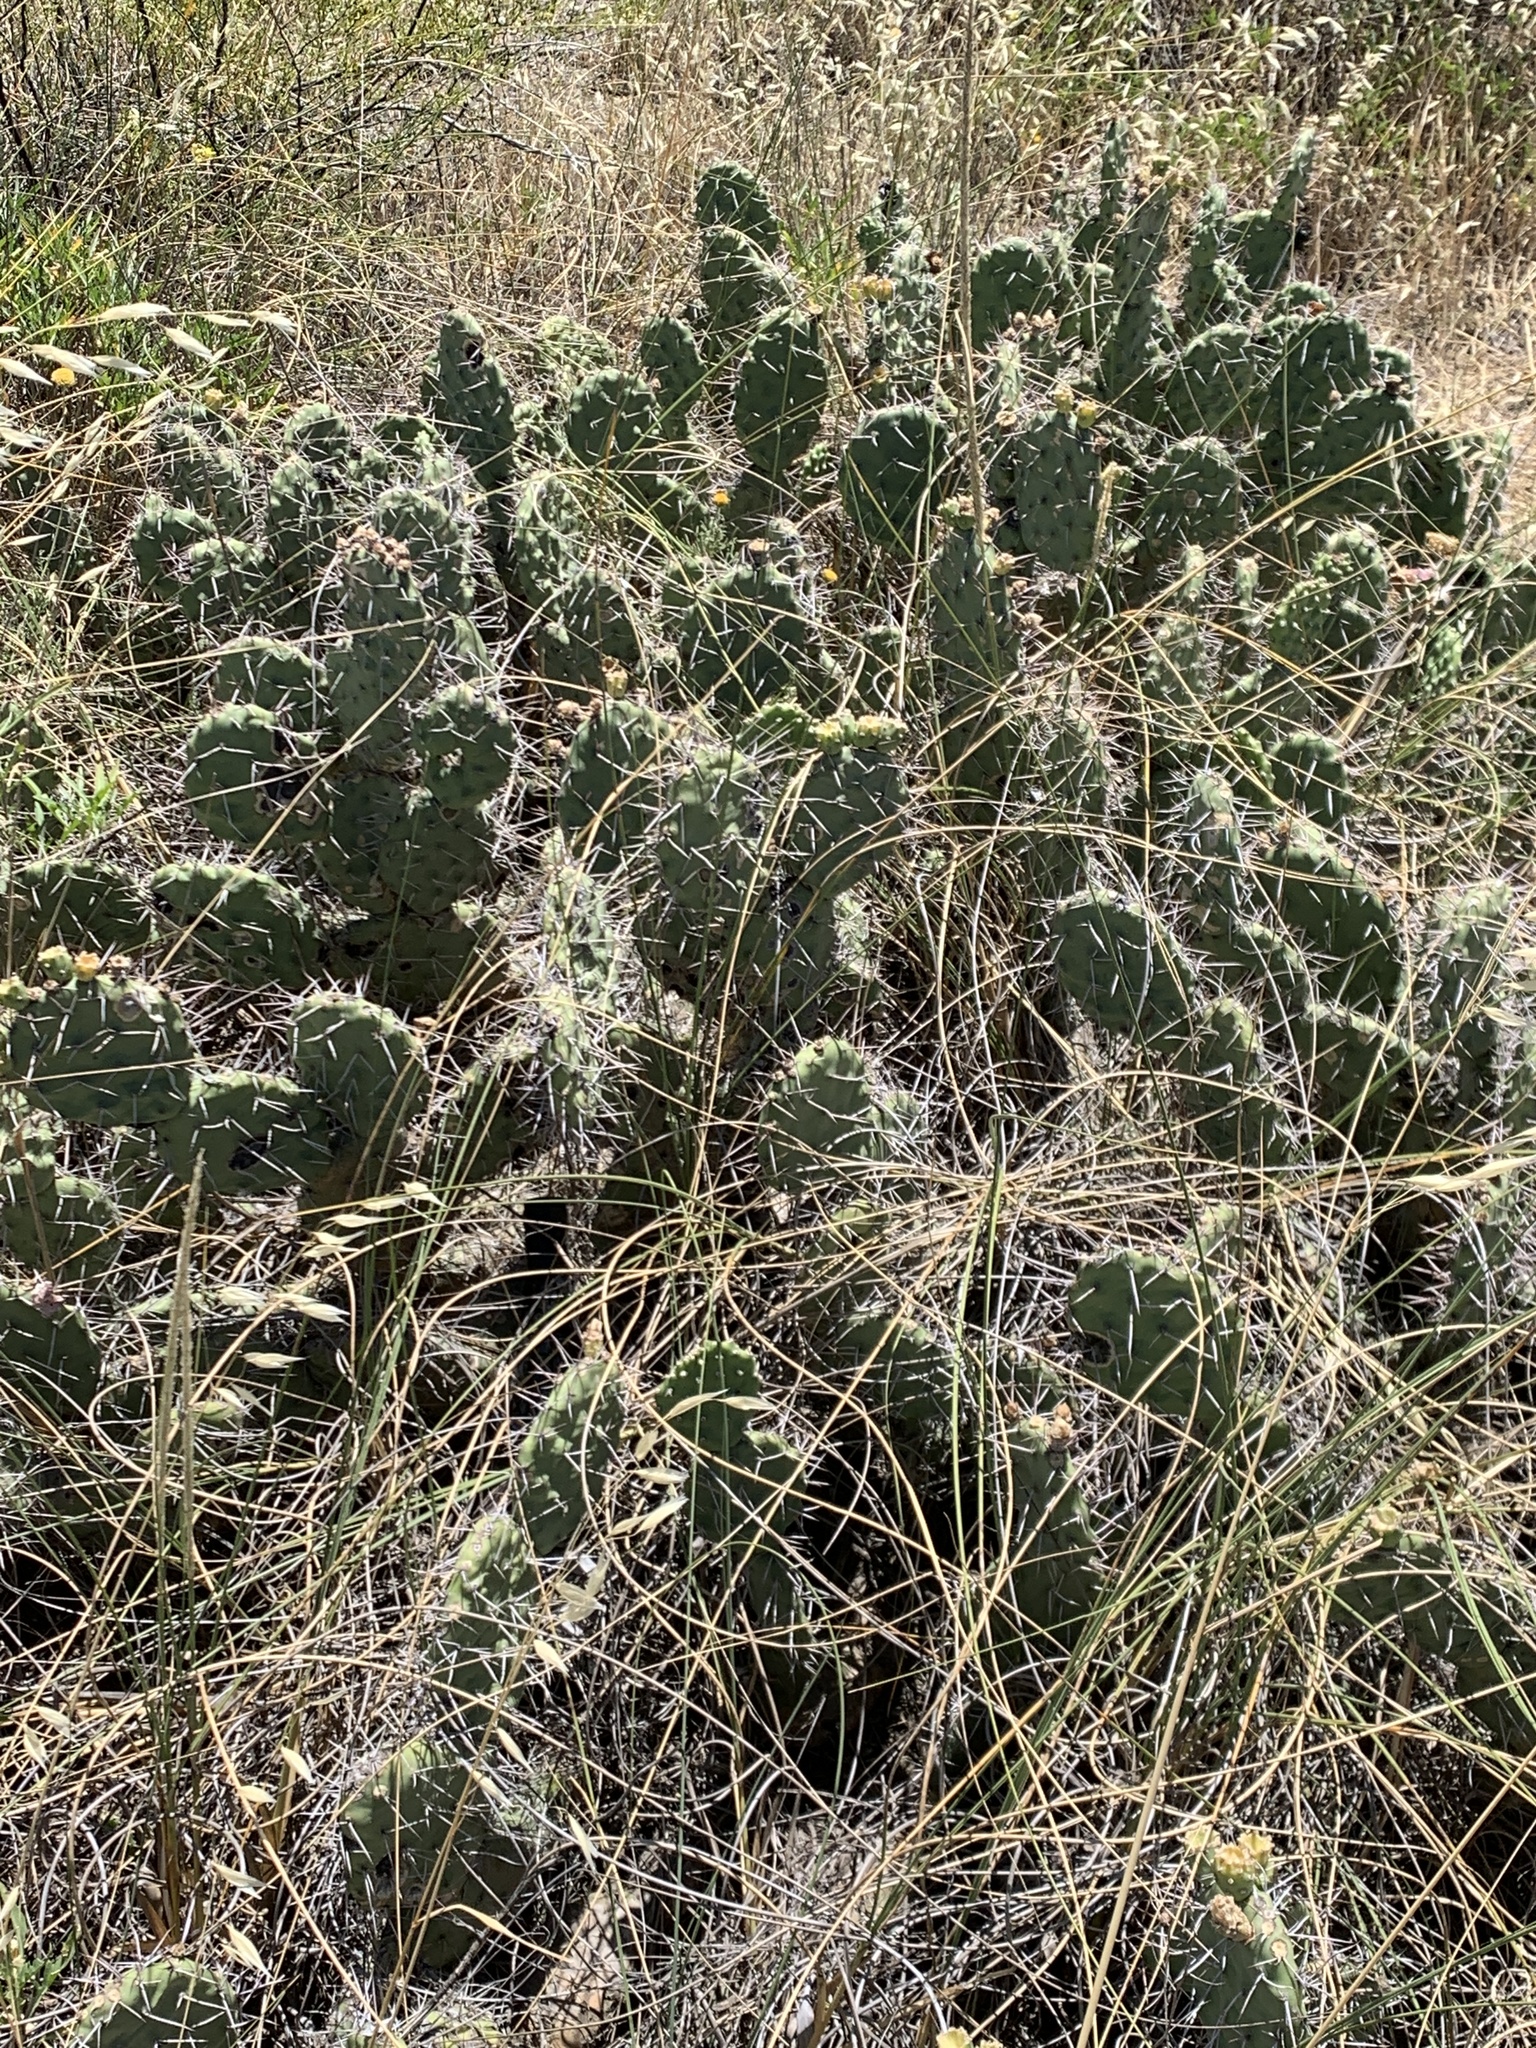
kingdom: Plantae
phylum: Tracheophyta
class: Magnoliopsida
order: Caryophyllales
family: Cactaceae
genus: Opuntia
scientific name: Opuntia sulphurea
